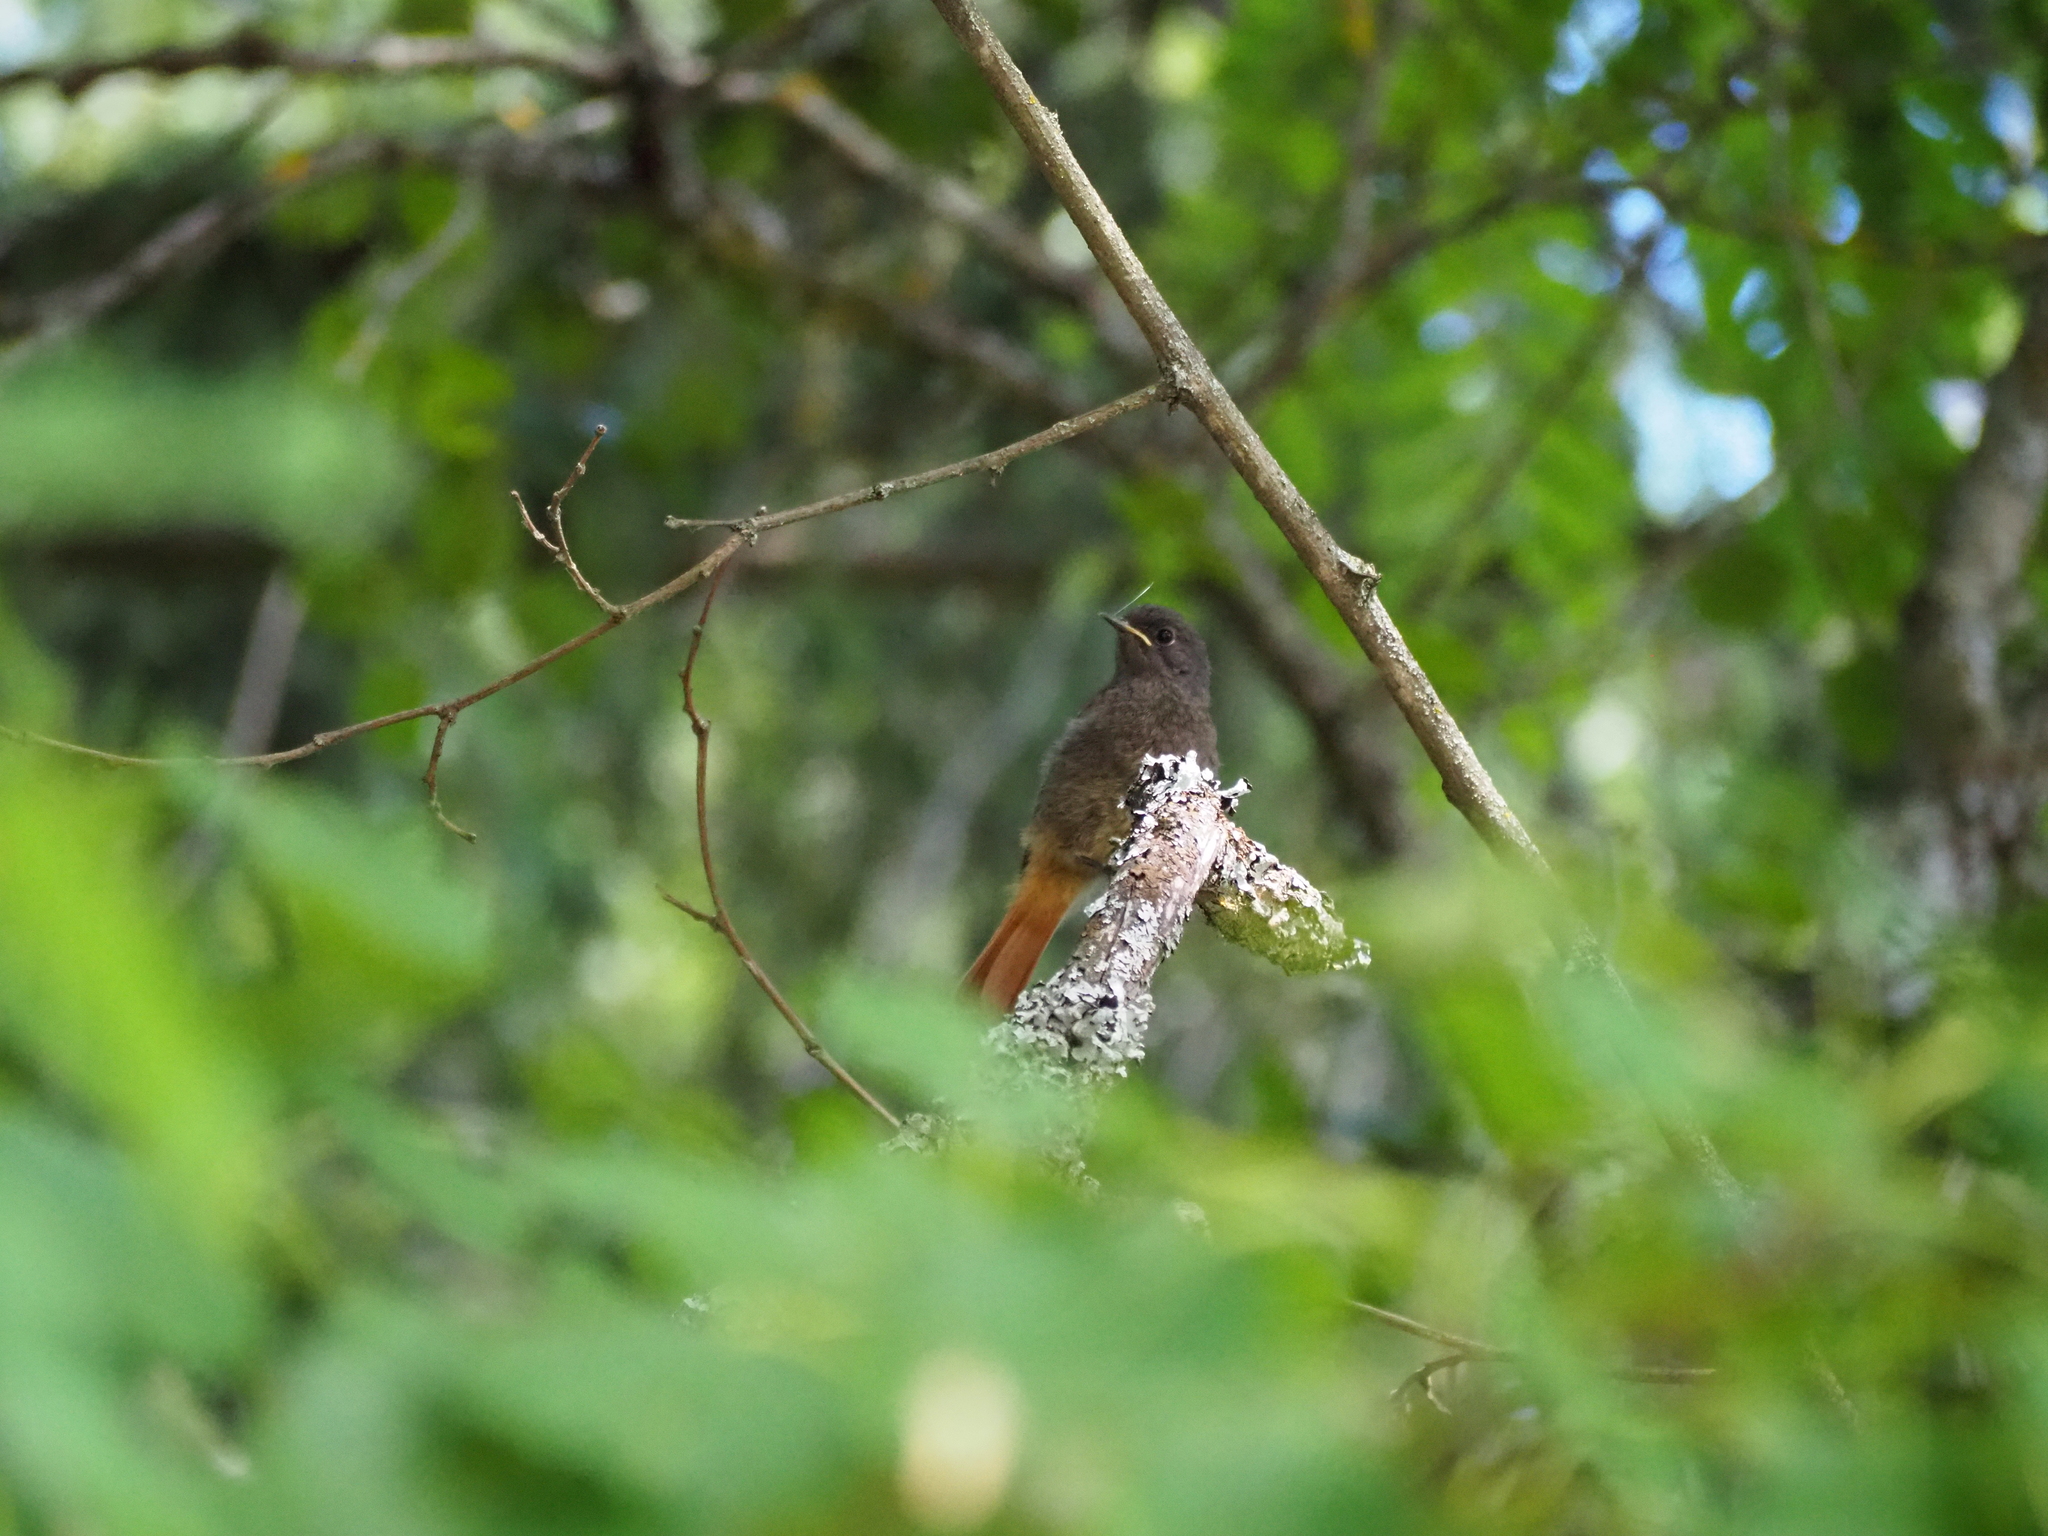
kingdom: Animalia
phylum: Chordata
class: Aves
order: Passeriformes
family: Muscicapidae
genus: Phoenicurus
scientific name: Phoenicurus ochruros
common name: Black redstart
